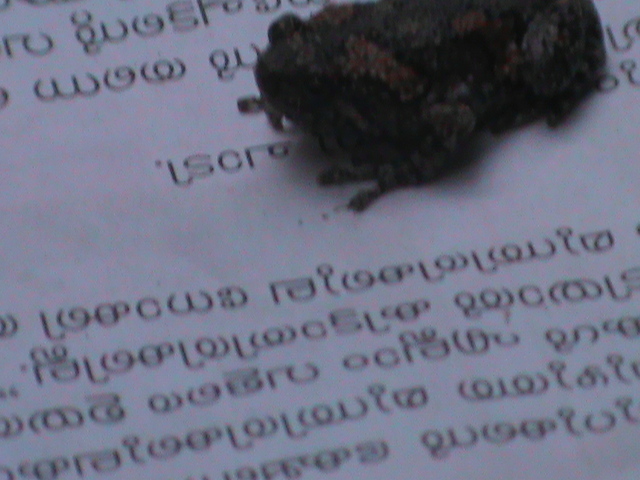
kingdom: Animalia
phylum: Chordata
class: Amphibia
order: Anura
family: Microhylidae
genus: Uperodon
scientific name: Uperodon taprobanicus
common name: Ceylon kaloula
